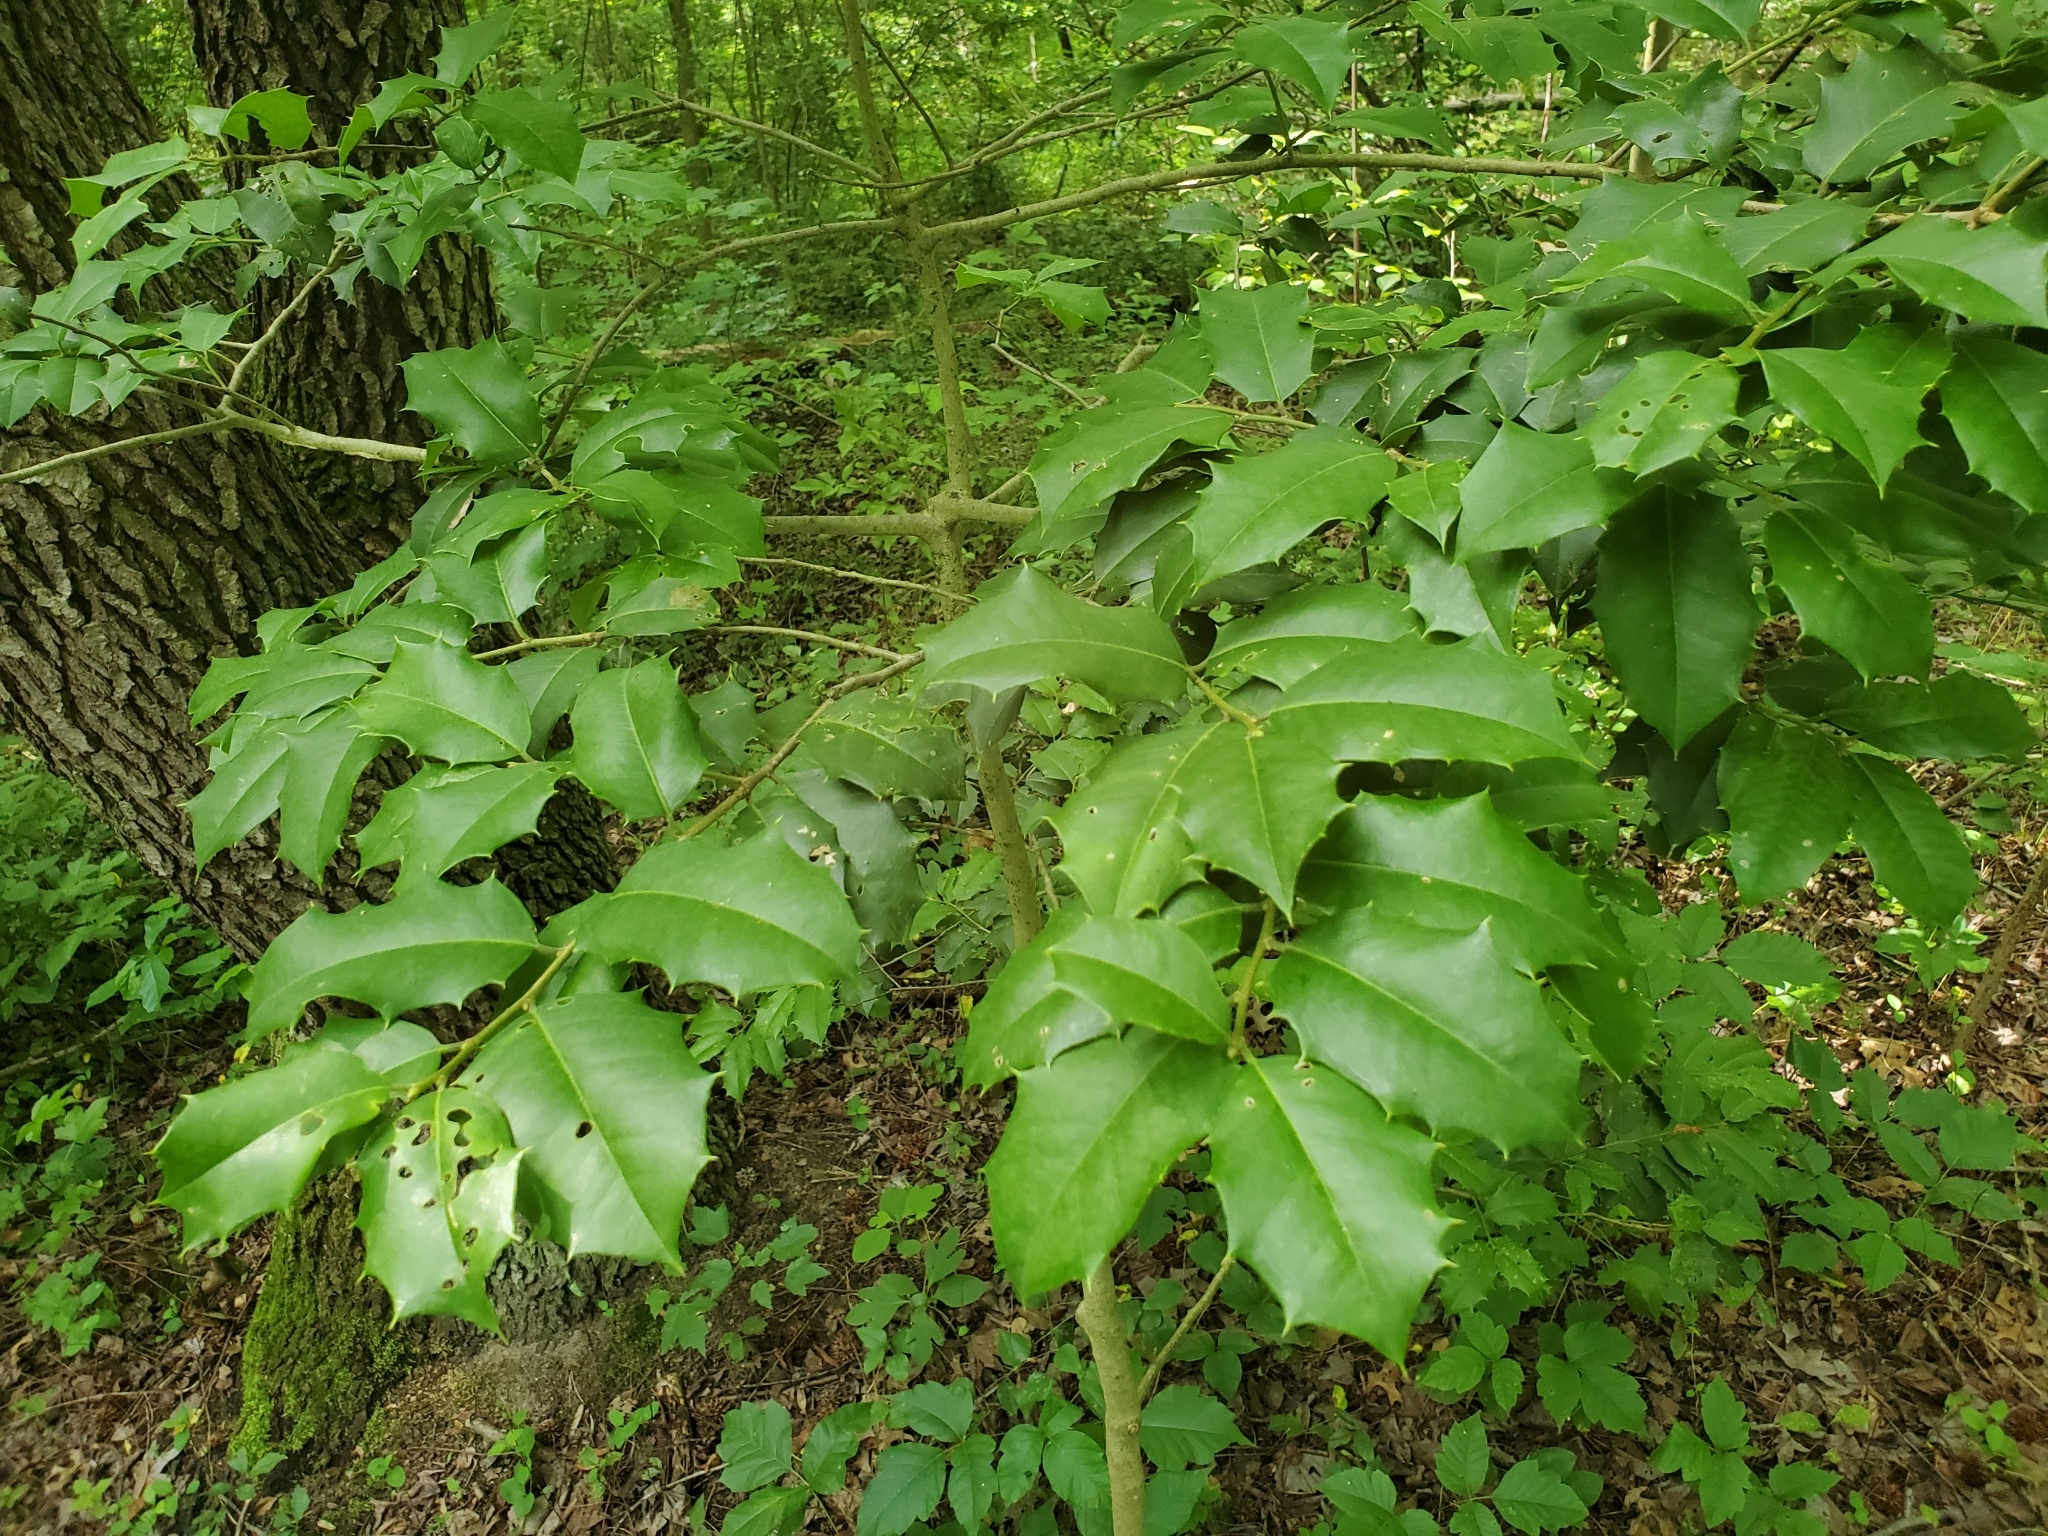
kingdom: Plantae
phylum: Tracheophyta
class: Magnoliopsida
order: Aquifoliales
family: Aquifoliaceae
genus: Ilex
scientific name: Ilex opaca
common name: American holly
